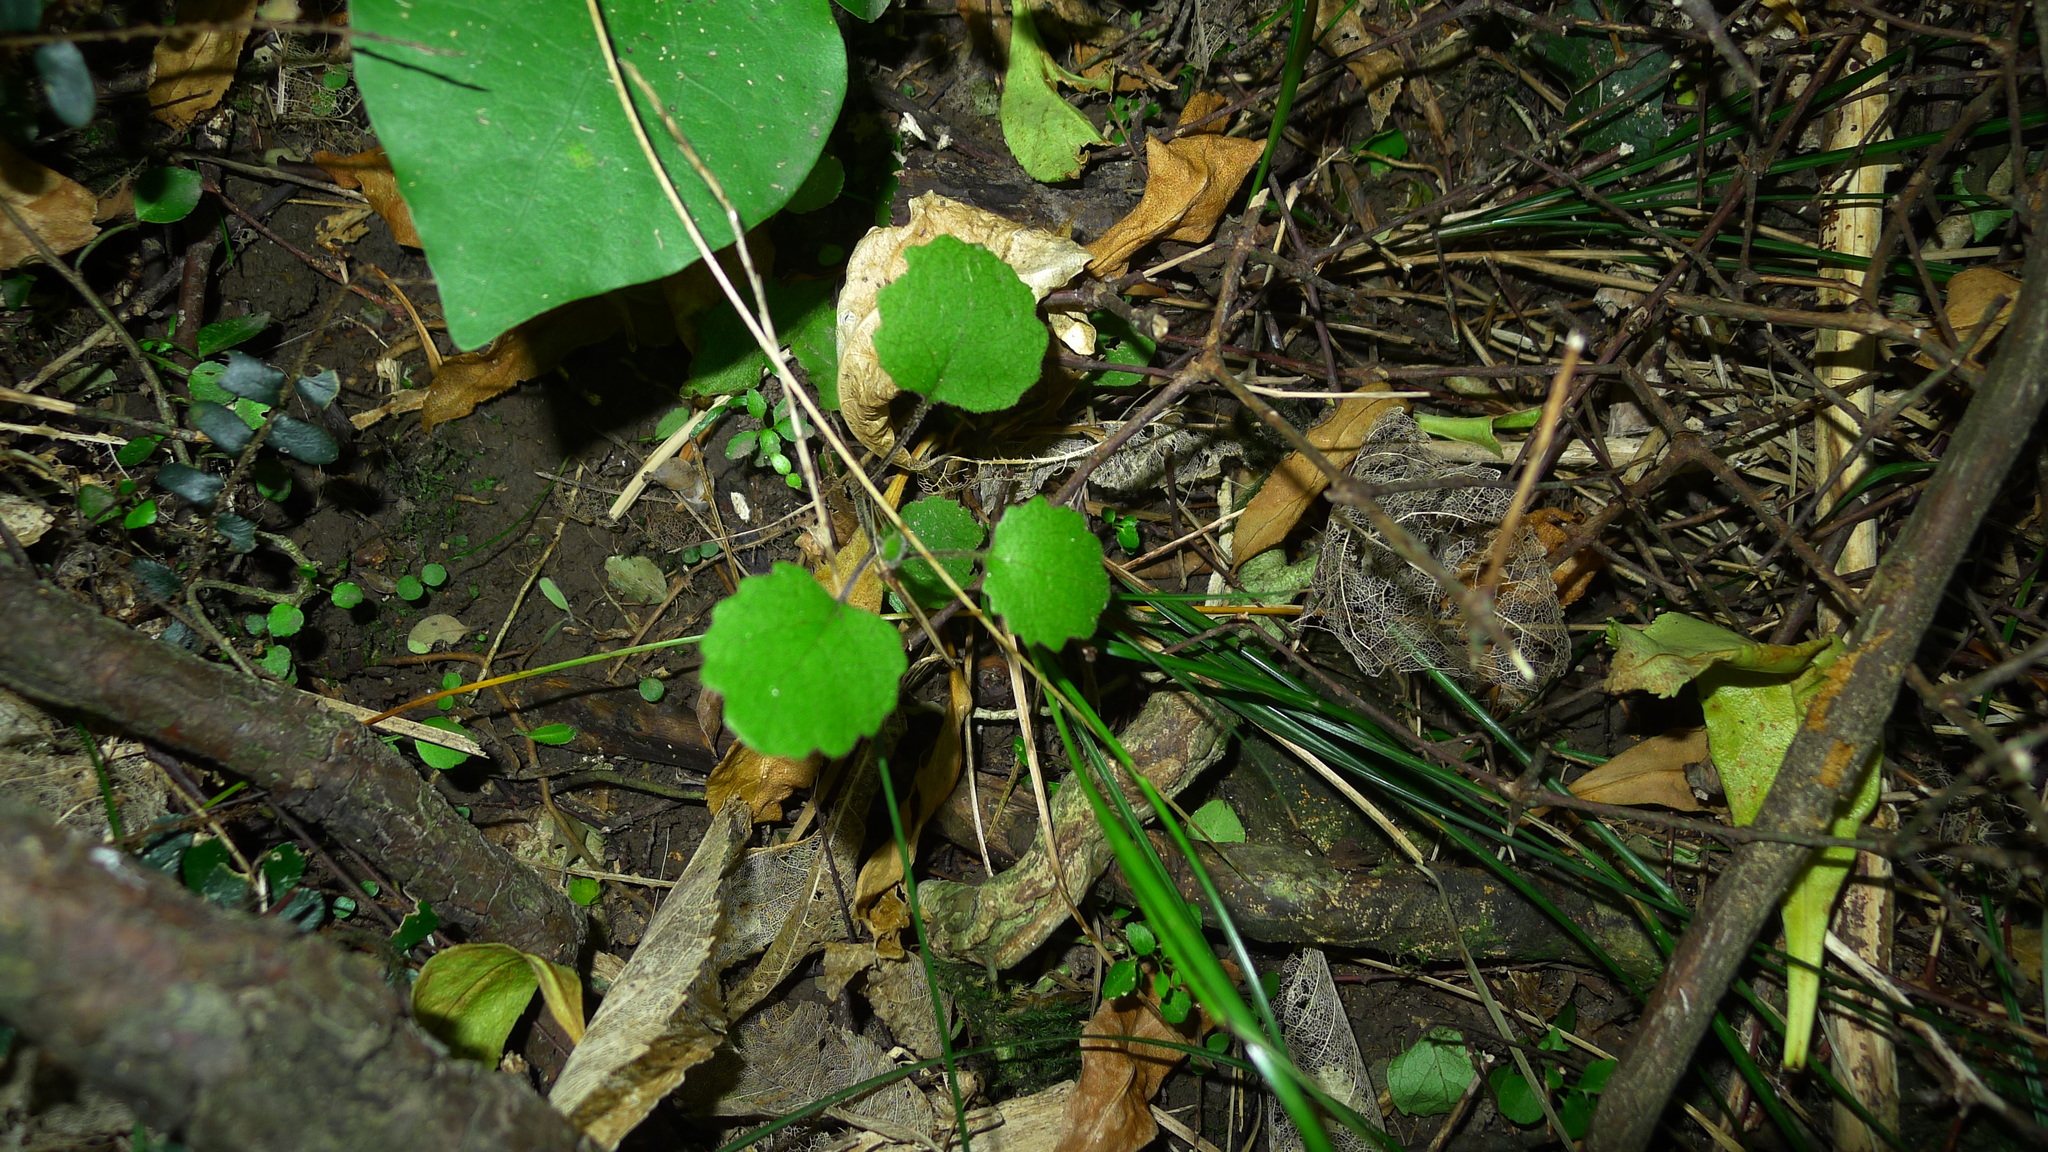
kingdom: Plantae
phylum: Tracheophyta
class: Magnoliopsida
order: Asterales
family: Asteraceae
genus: Brachyglottis
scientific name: Brachyglottis sciadophila
